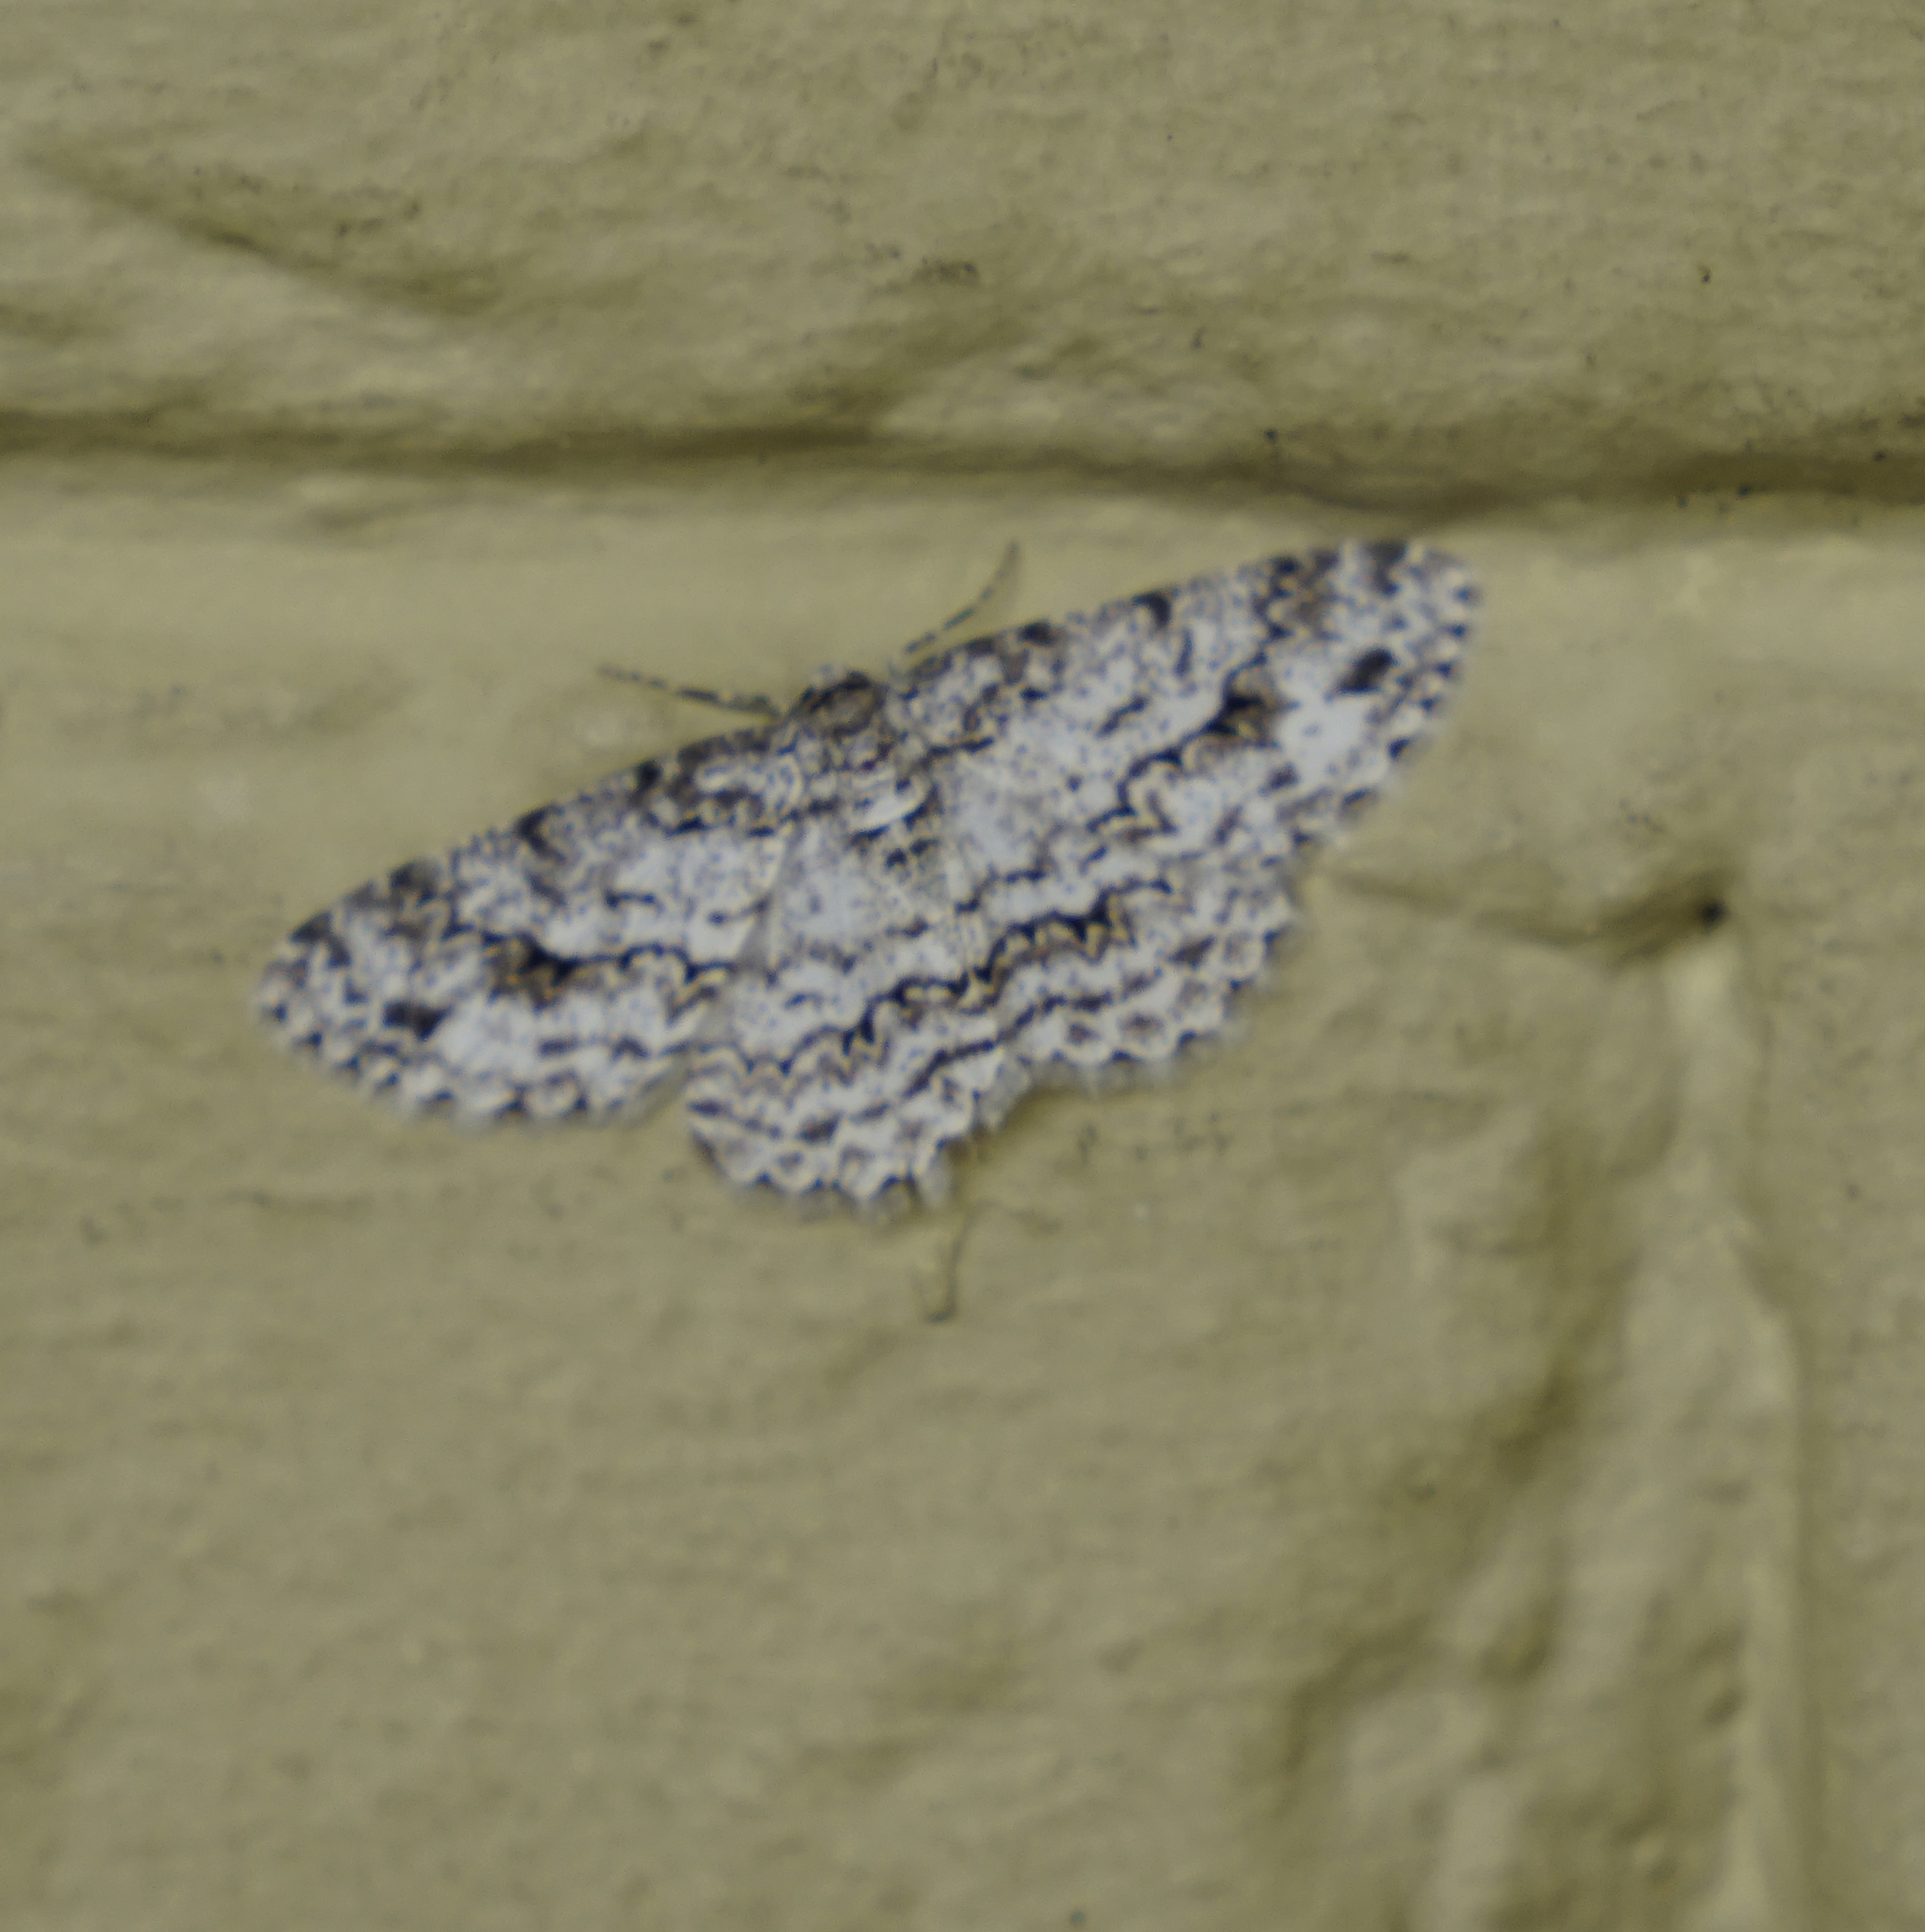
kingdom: Animalia
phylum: Arthropoda
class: Insecta
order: Lepidoptera
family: Geometridae
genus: Ectropis
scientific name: Ectropis
